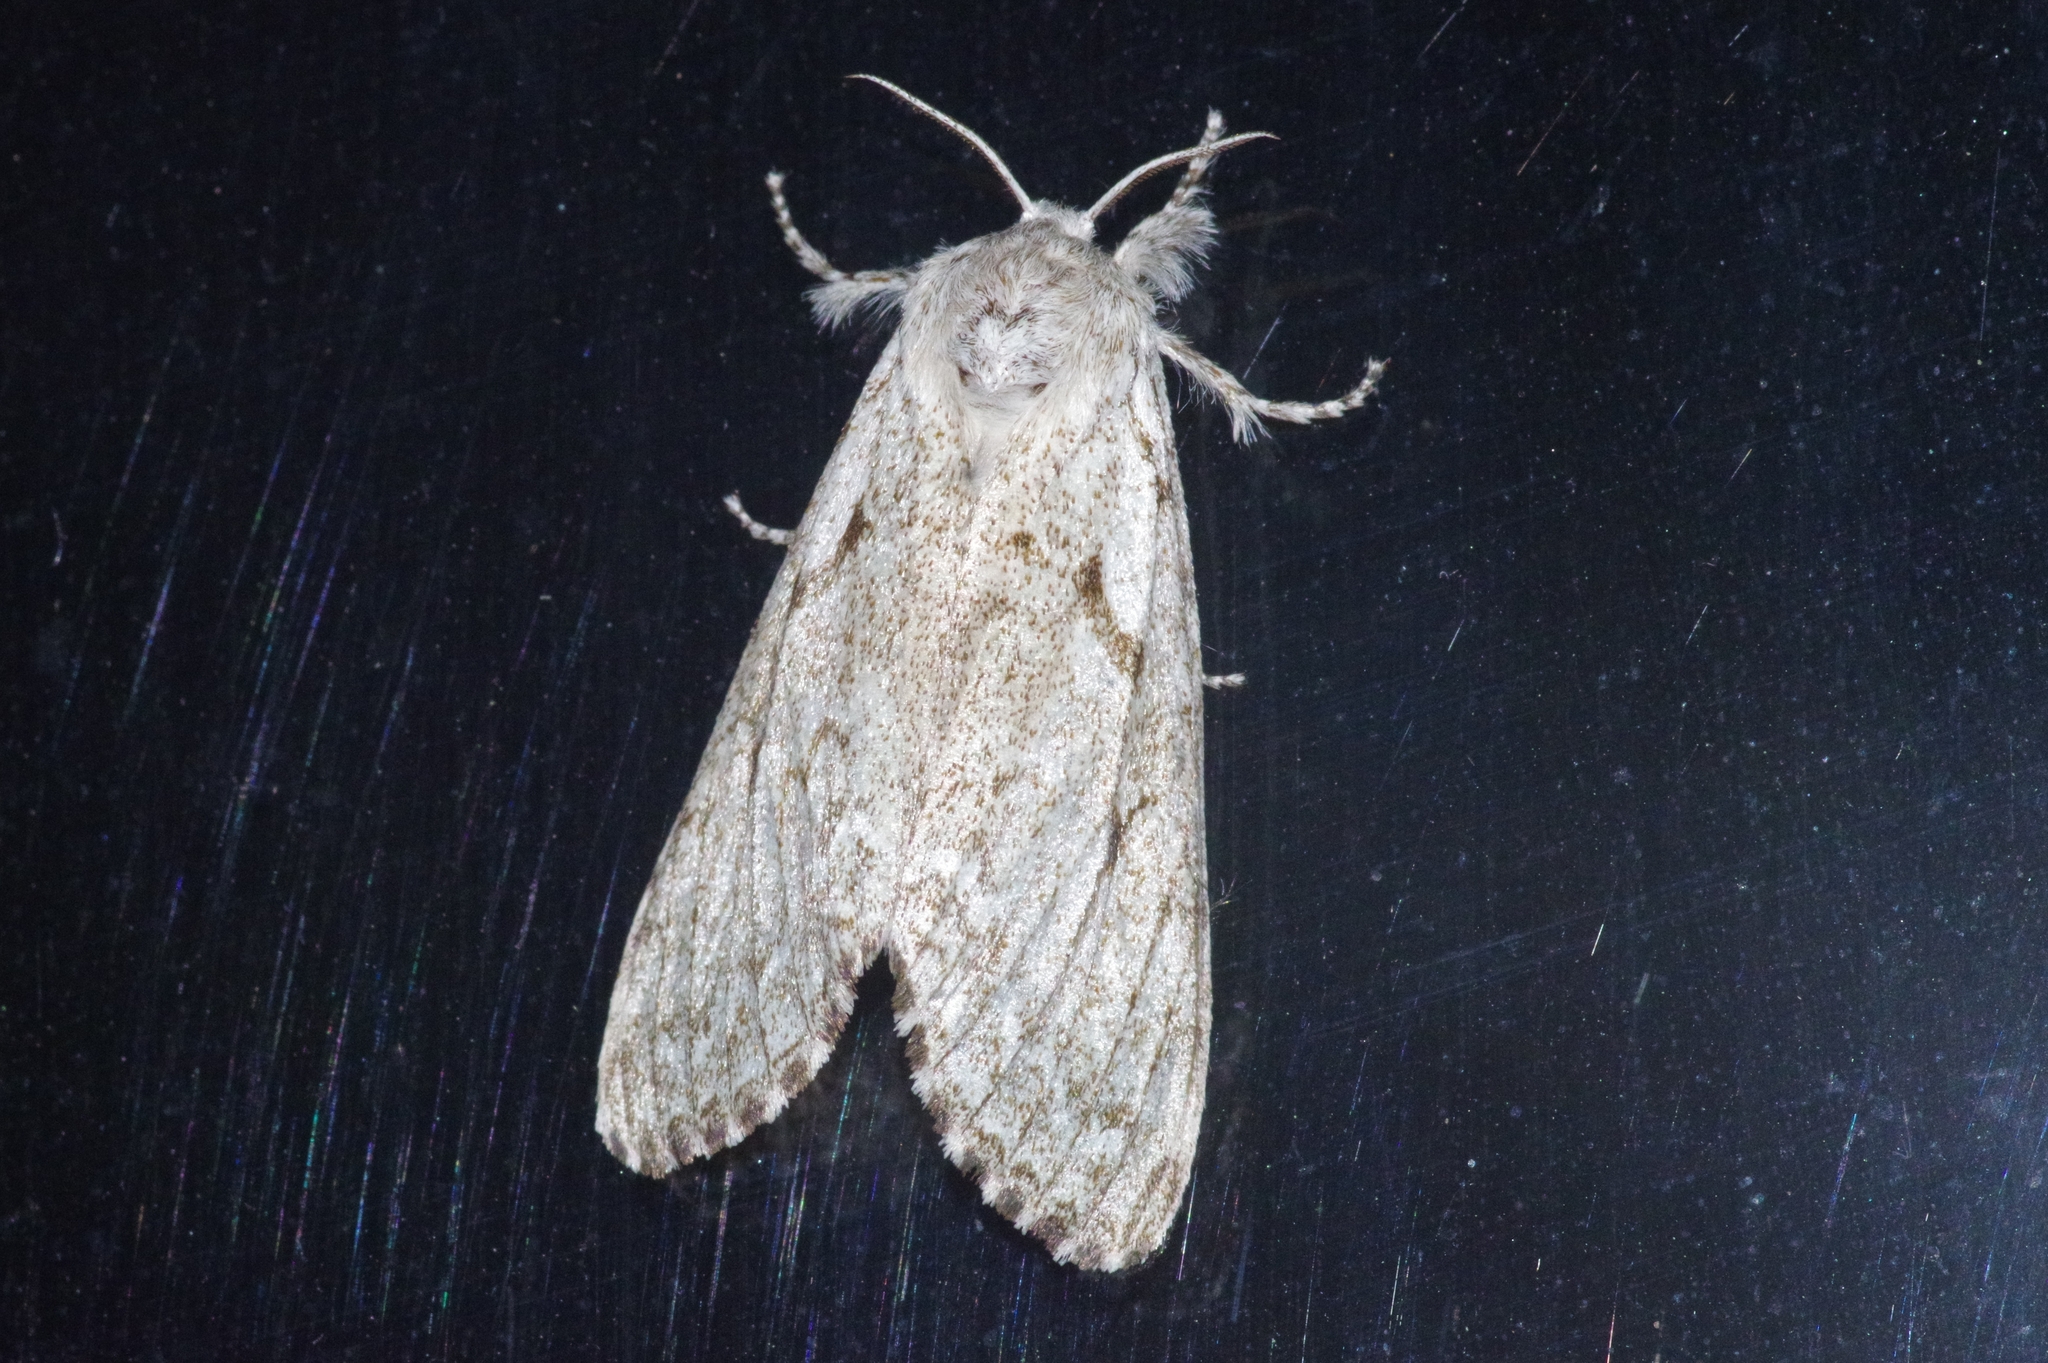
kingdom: Animalia
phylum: Arthropoda
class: Insecta
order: Lepidoptera
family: Erebidae
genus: Calliteara
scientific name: Calliteara abietis
